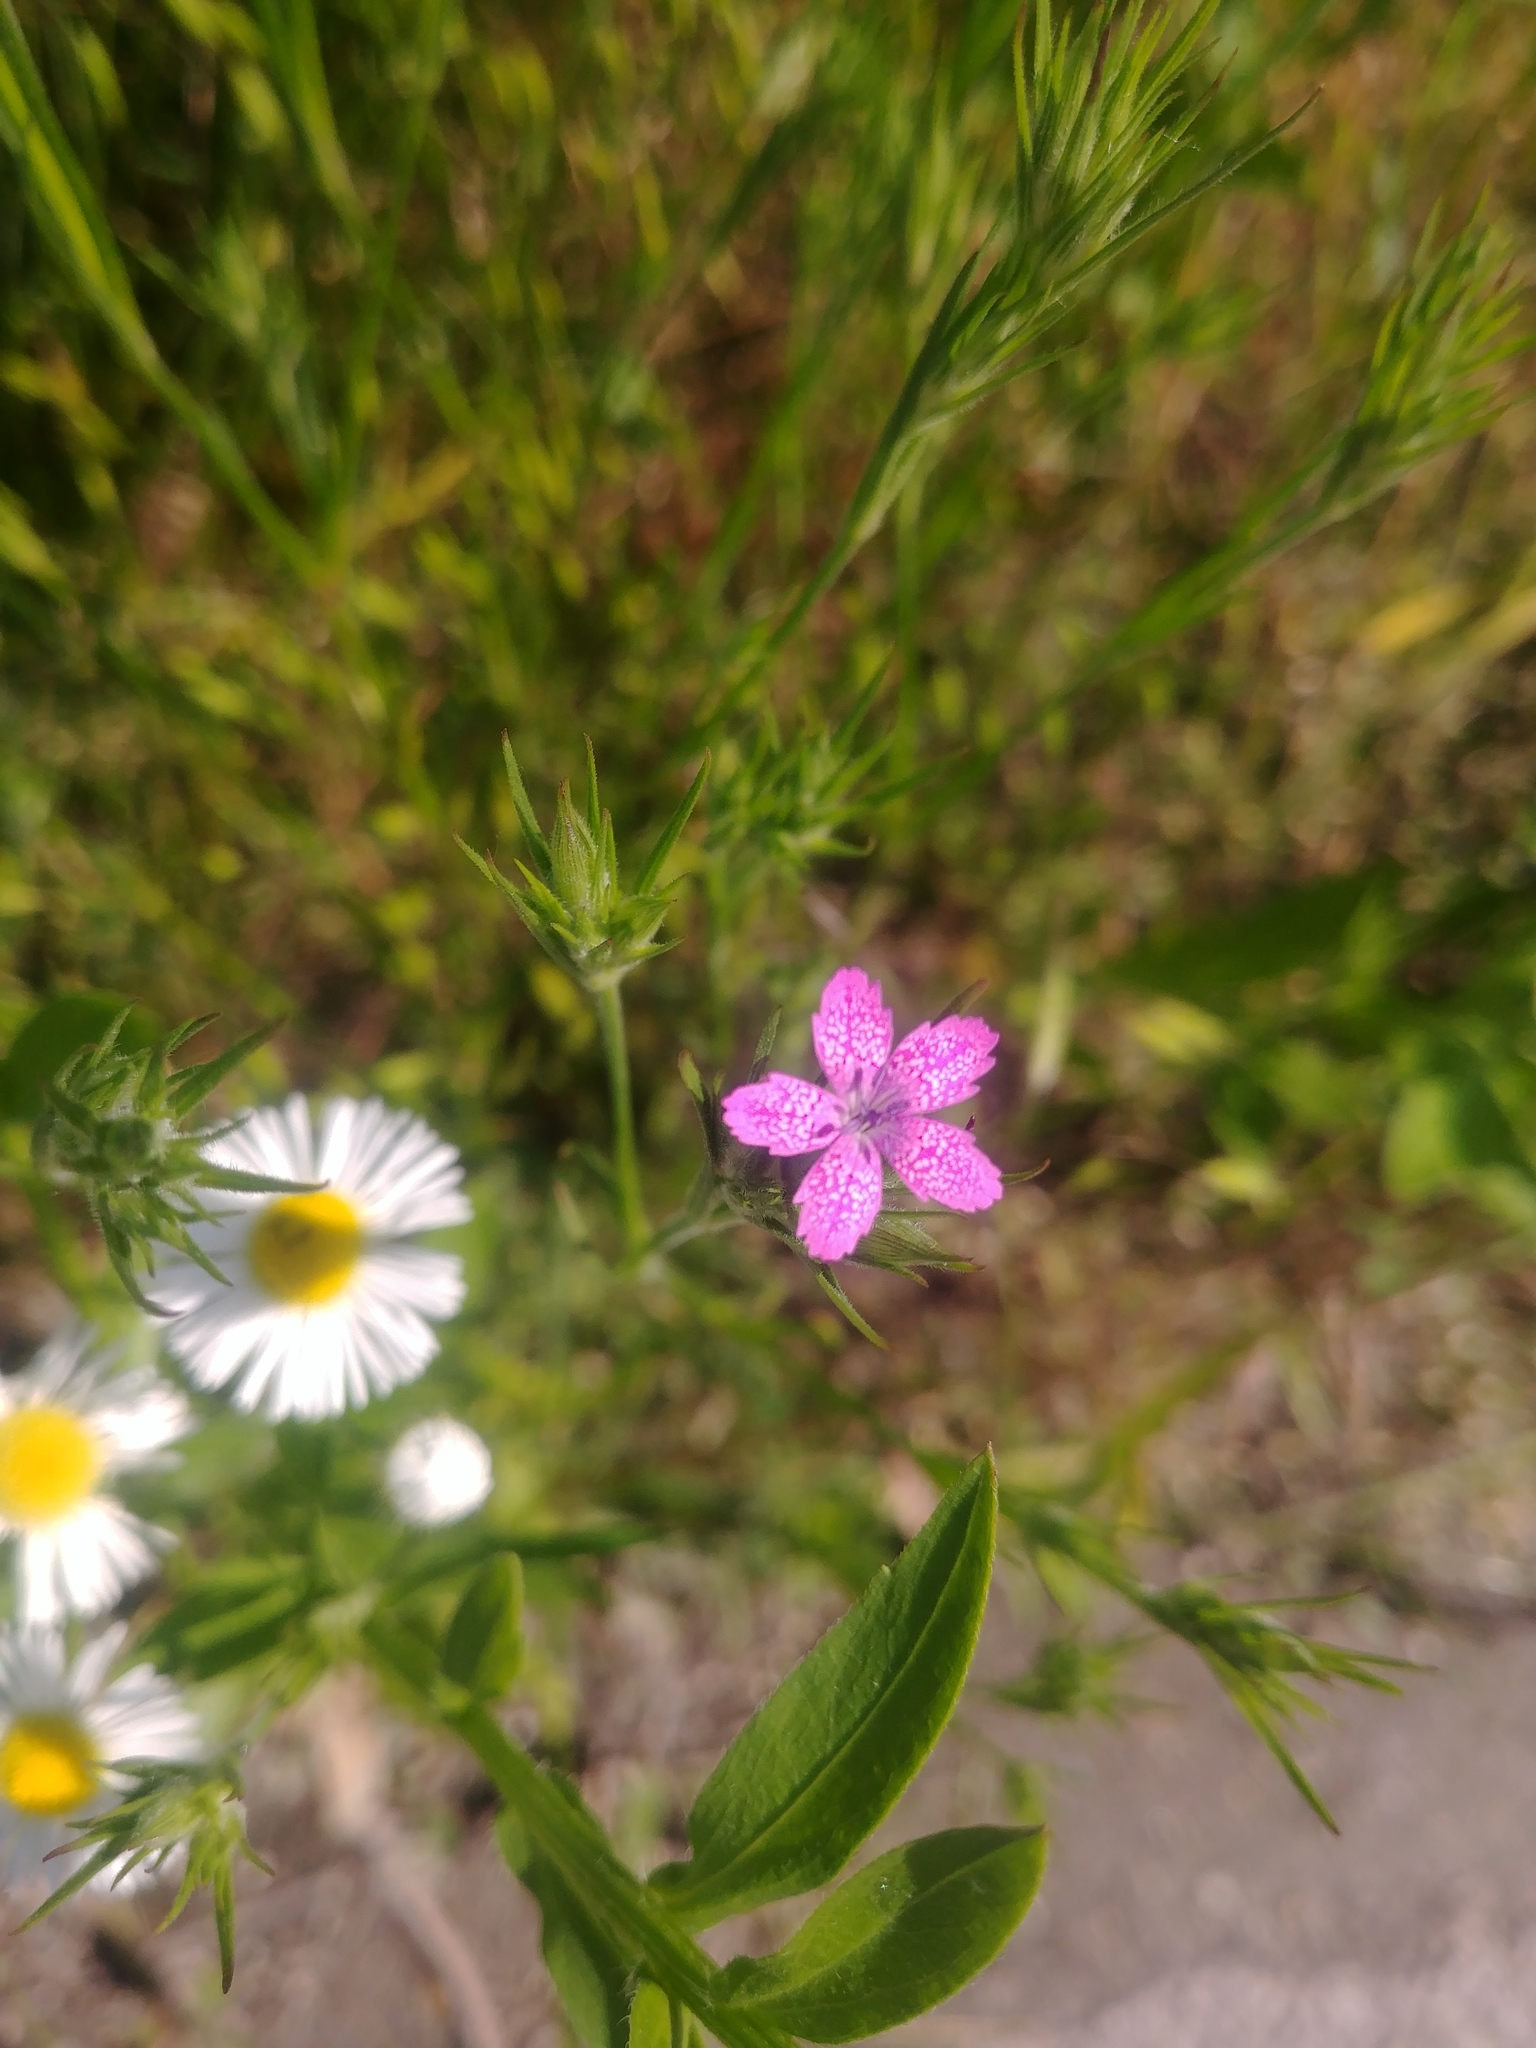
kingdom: Plantae
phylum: Tracheophyta
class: Magnoliopsida
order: Caryophyllales
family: Caryophyllaceae
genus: Dianthus
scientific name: Dianthus armeria
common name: Deptford pink
